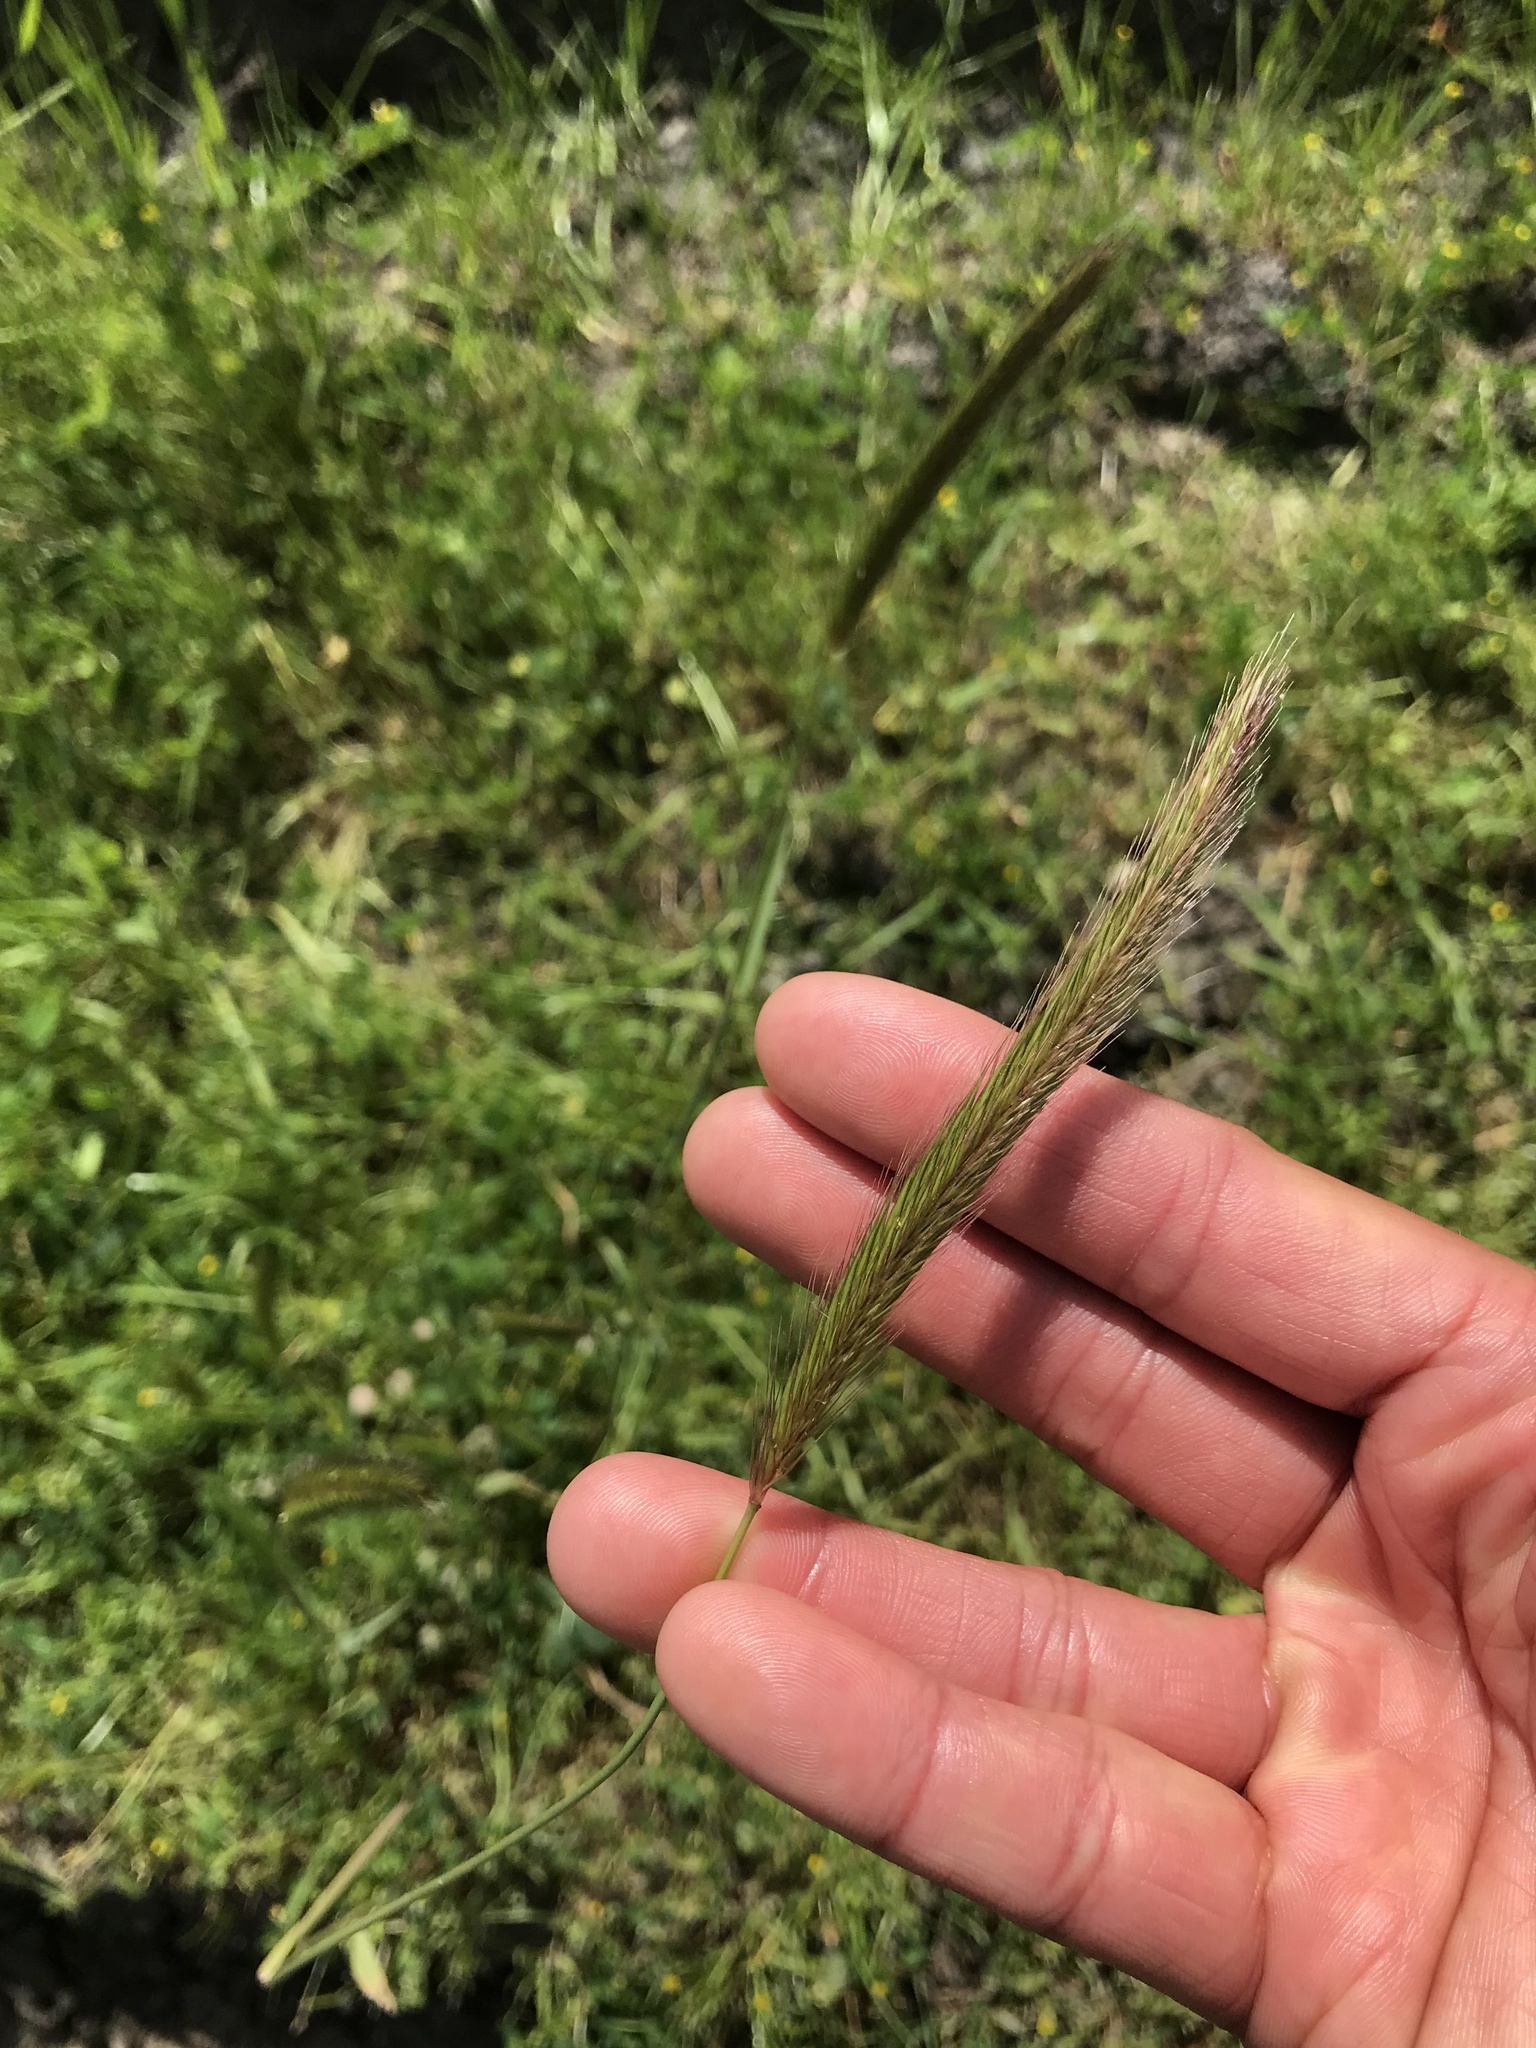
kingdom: Plantae
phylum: Tracheophyta
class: Liliopsida
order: Poales
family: Poaceae
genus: Hordeum
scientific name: Hordeum brachyantherum
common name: Meadow barley
